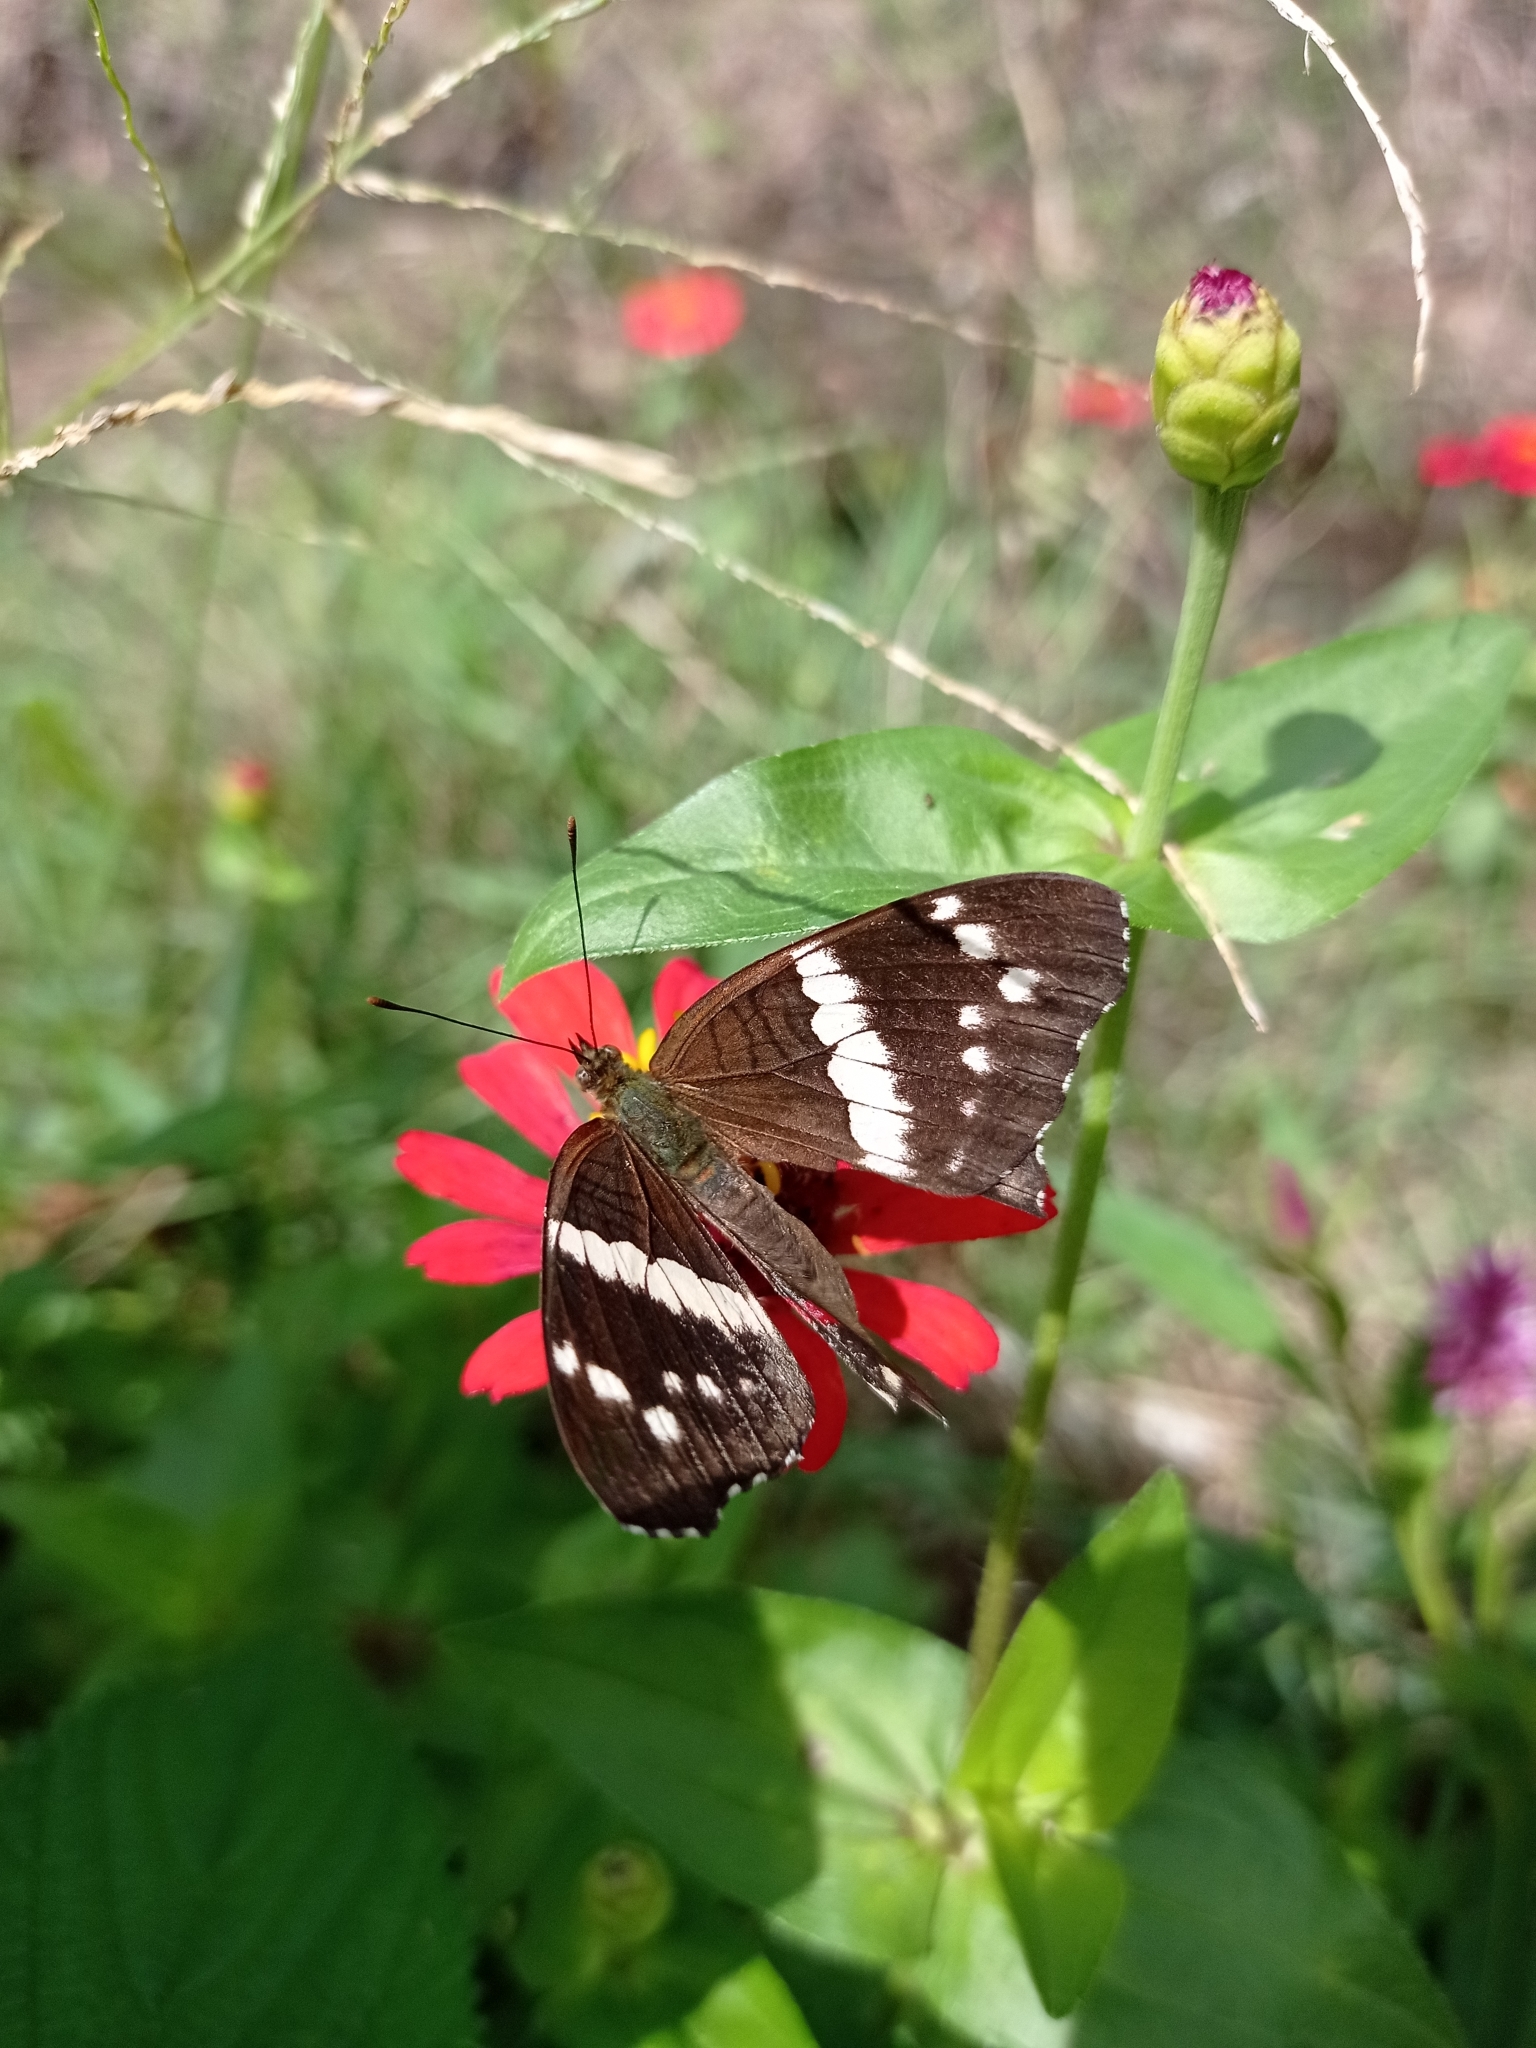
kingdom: Animalia
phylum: Arthropoda
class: Insecta
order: Lepidoptera
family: Nymphalidae
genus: Anartia
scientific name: Anartia fatima
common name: Banded peacock
